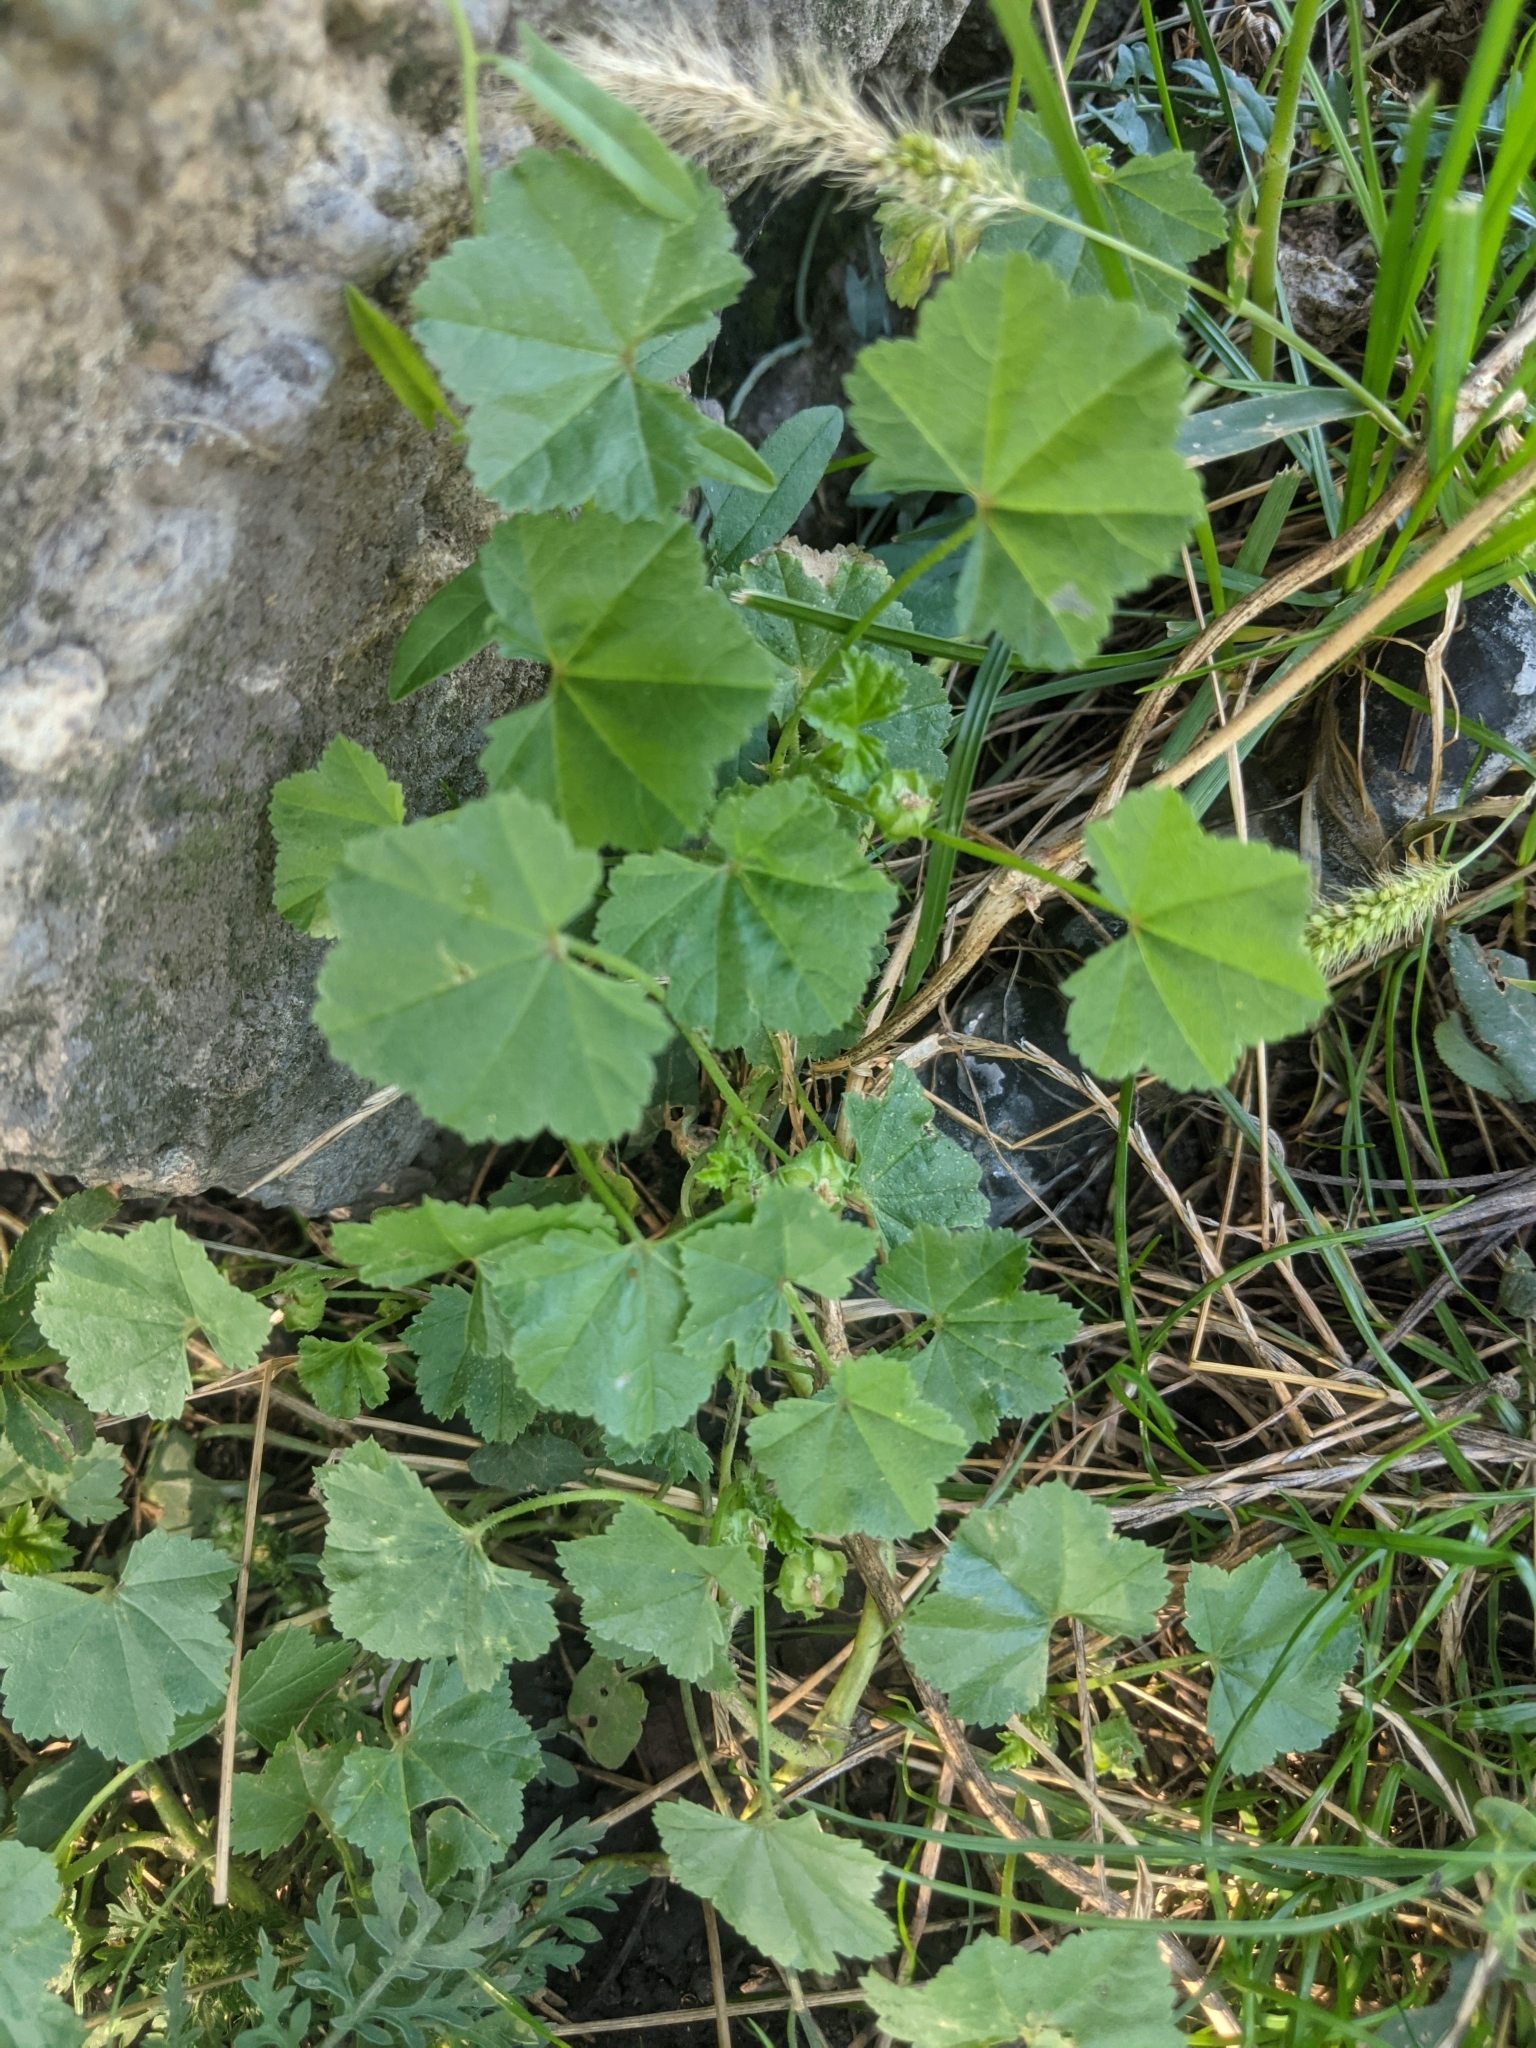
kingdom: Plantae
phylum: Tracheophyta
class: Magnoliopsida
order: Malvales
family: Malvaceae
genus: Malva
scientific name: Malva pusilla
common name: Small mallow
